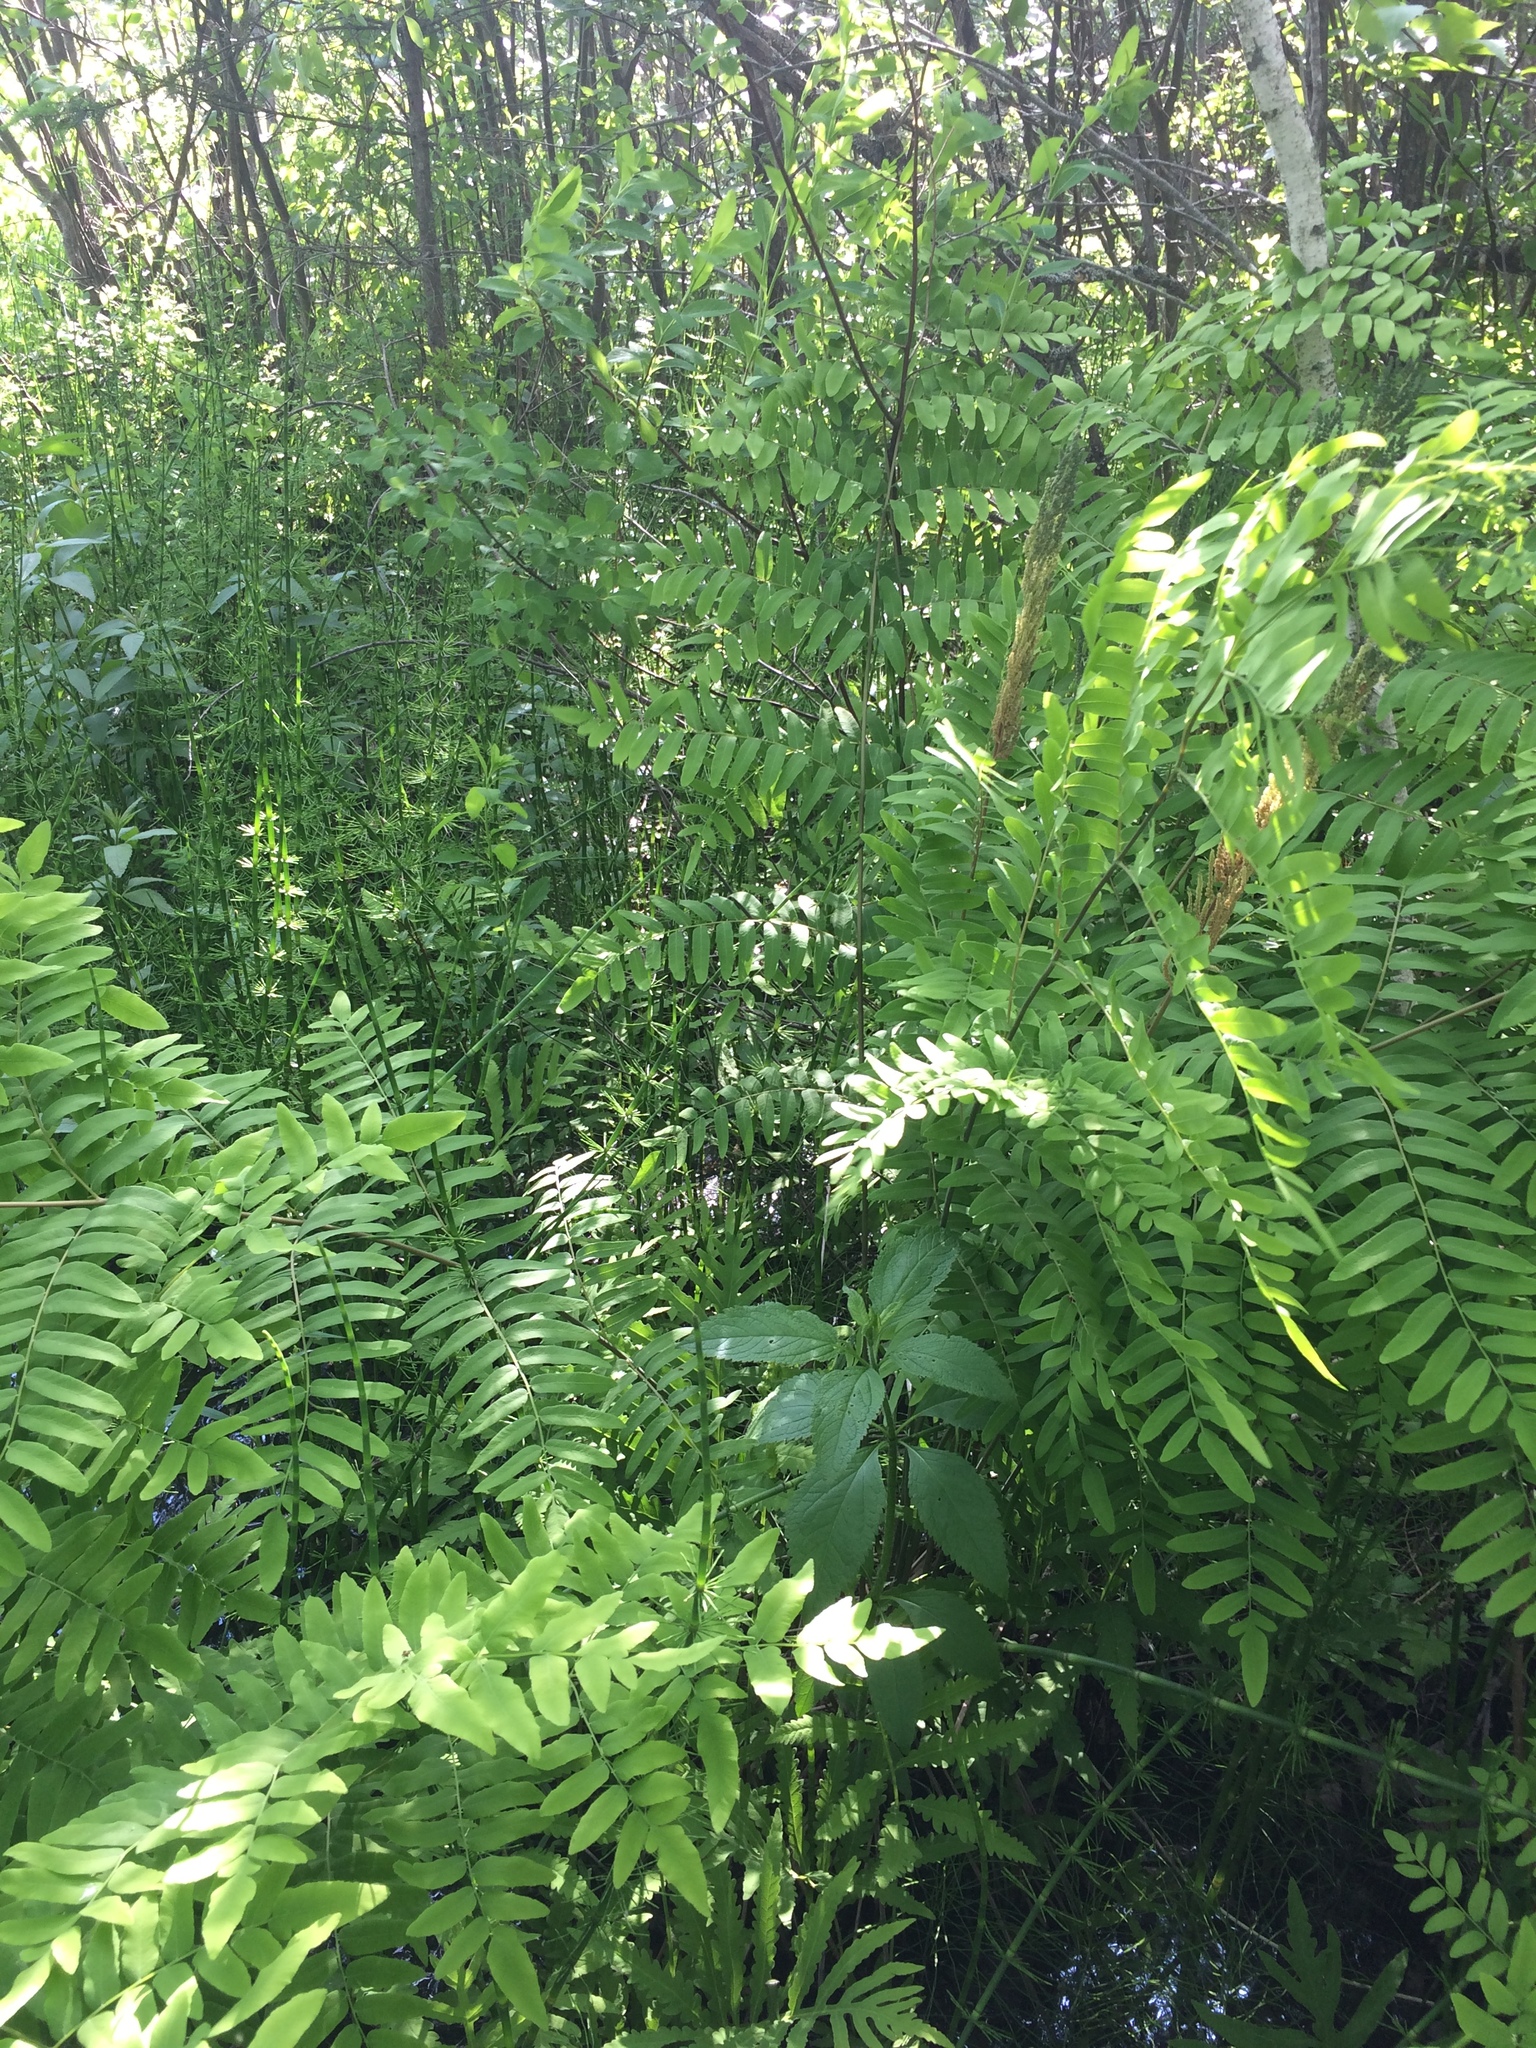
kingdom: Plantae
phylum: Tracheophyta
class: Polypodiopsida
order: Osmundales
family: Osmundaceae
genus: Osmunda
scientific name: Osmunda spectabilis
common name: American royal fern
